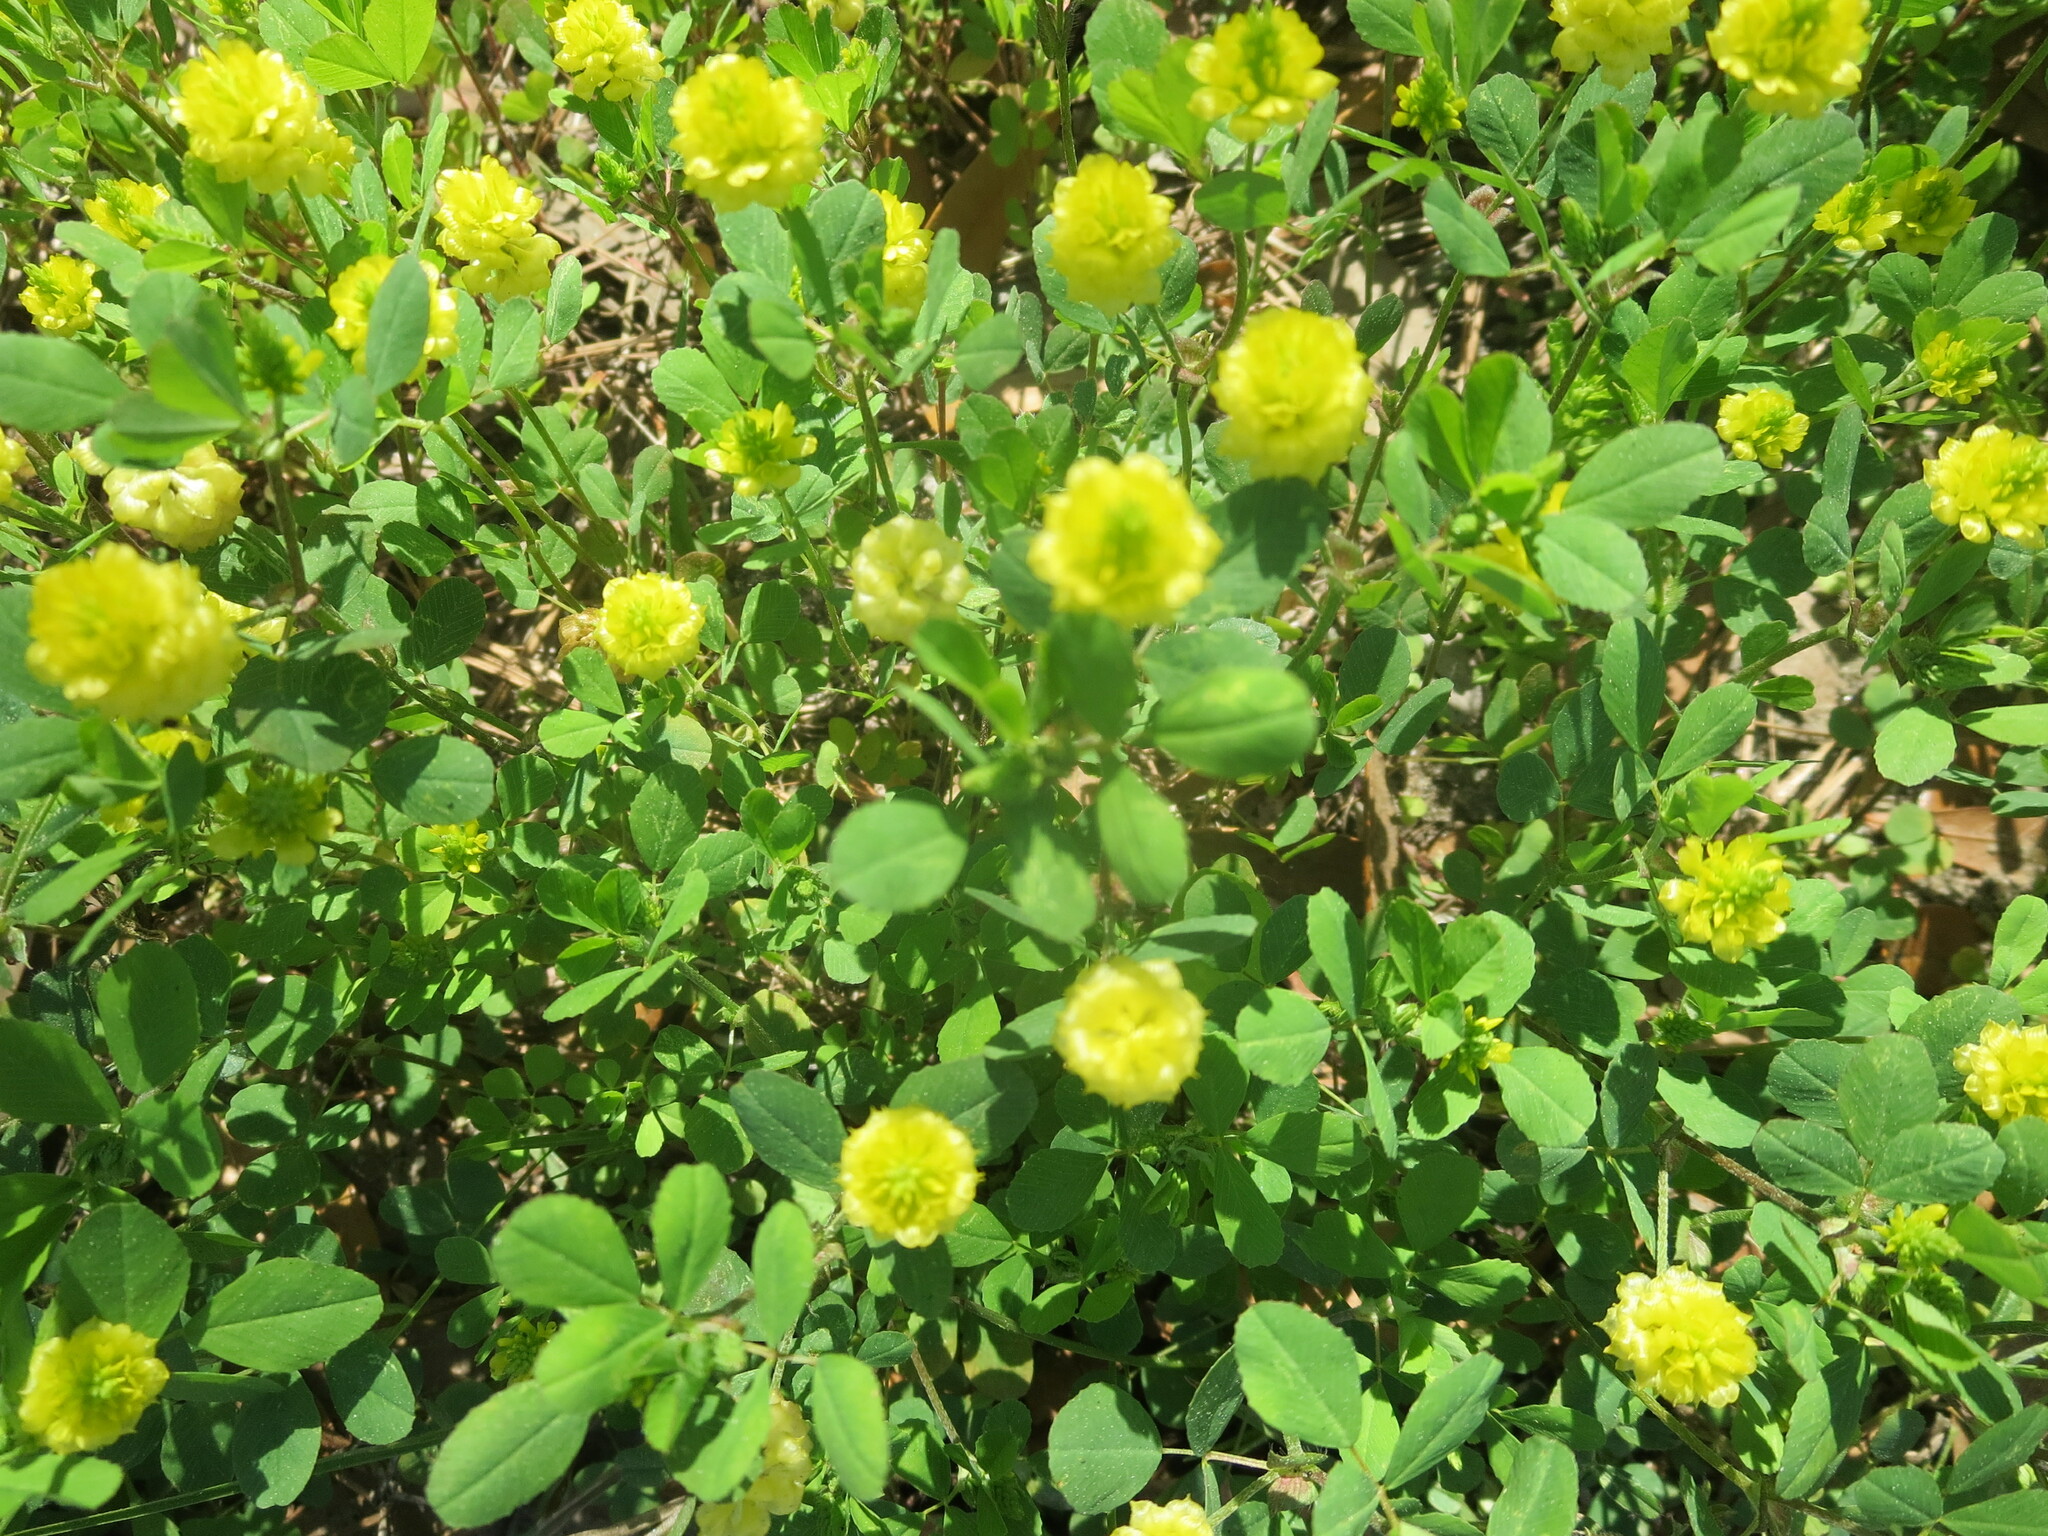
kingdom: Plantae
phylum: Tracheophyta
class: Magnoliopsida
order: Fabales
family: Fabaceae
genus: Trifolium
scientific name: Trifolium campestre
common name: Field clover
